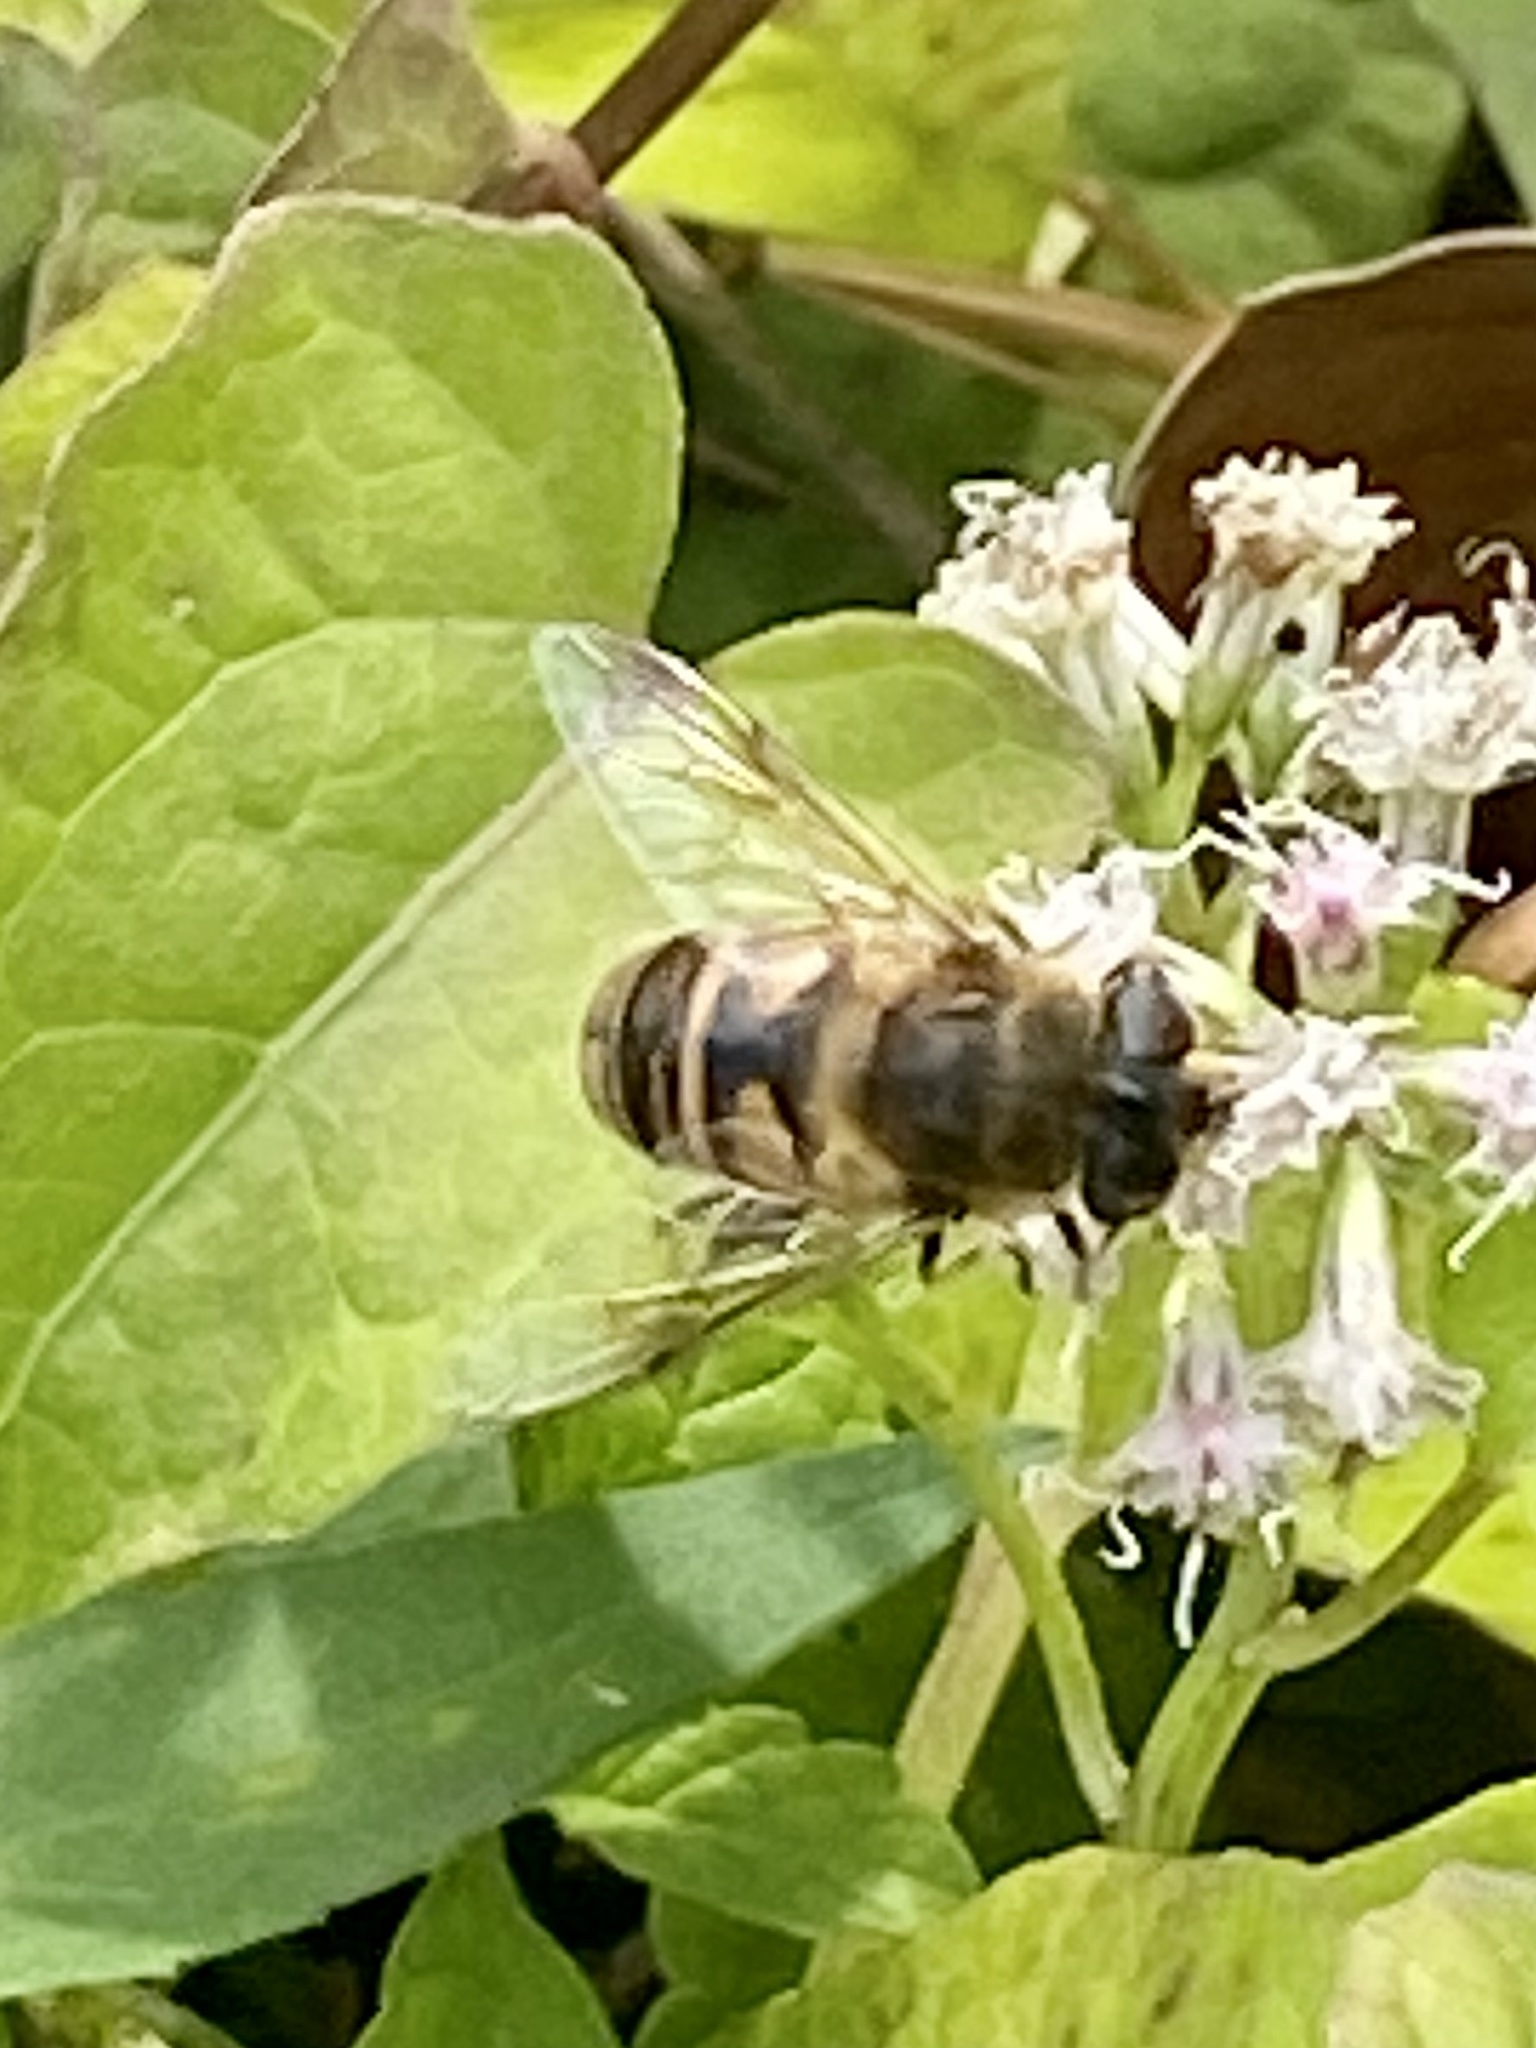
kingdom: Animalia
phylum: Arthropoda
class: Insecta
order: Diptera
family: Syrphidae
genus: Eristalis
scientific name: Eristalis tenax
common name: Drone fly
